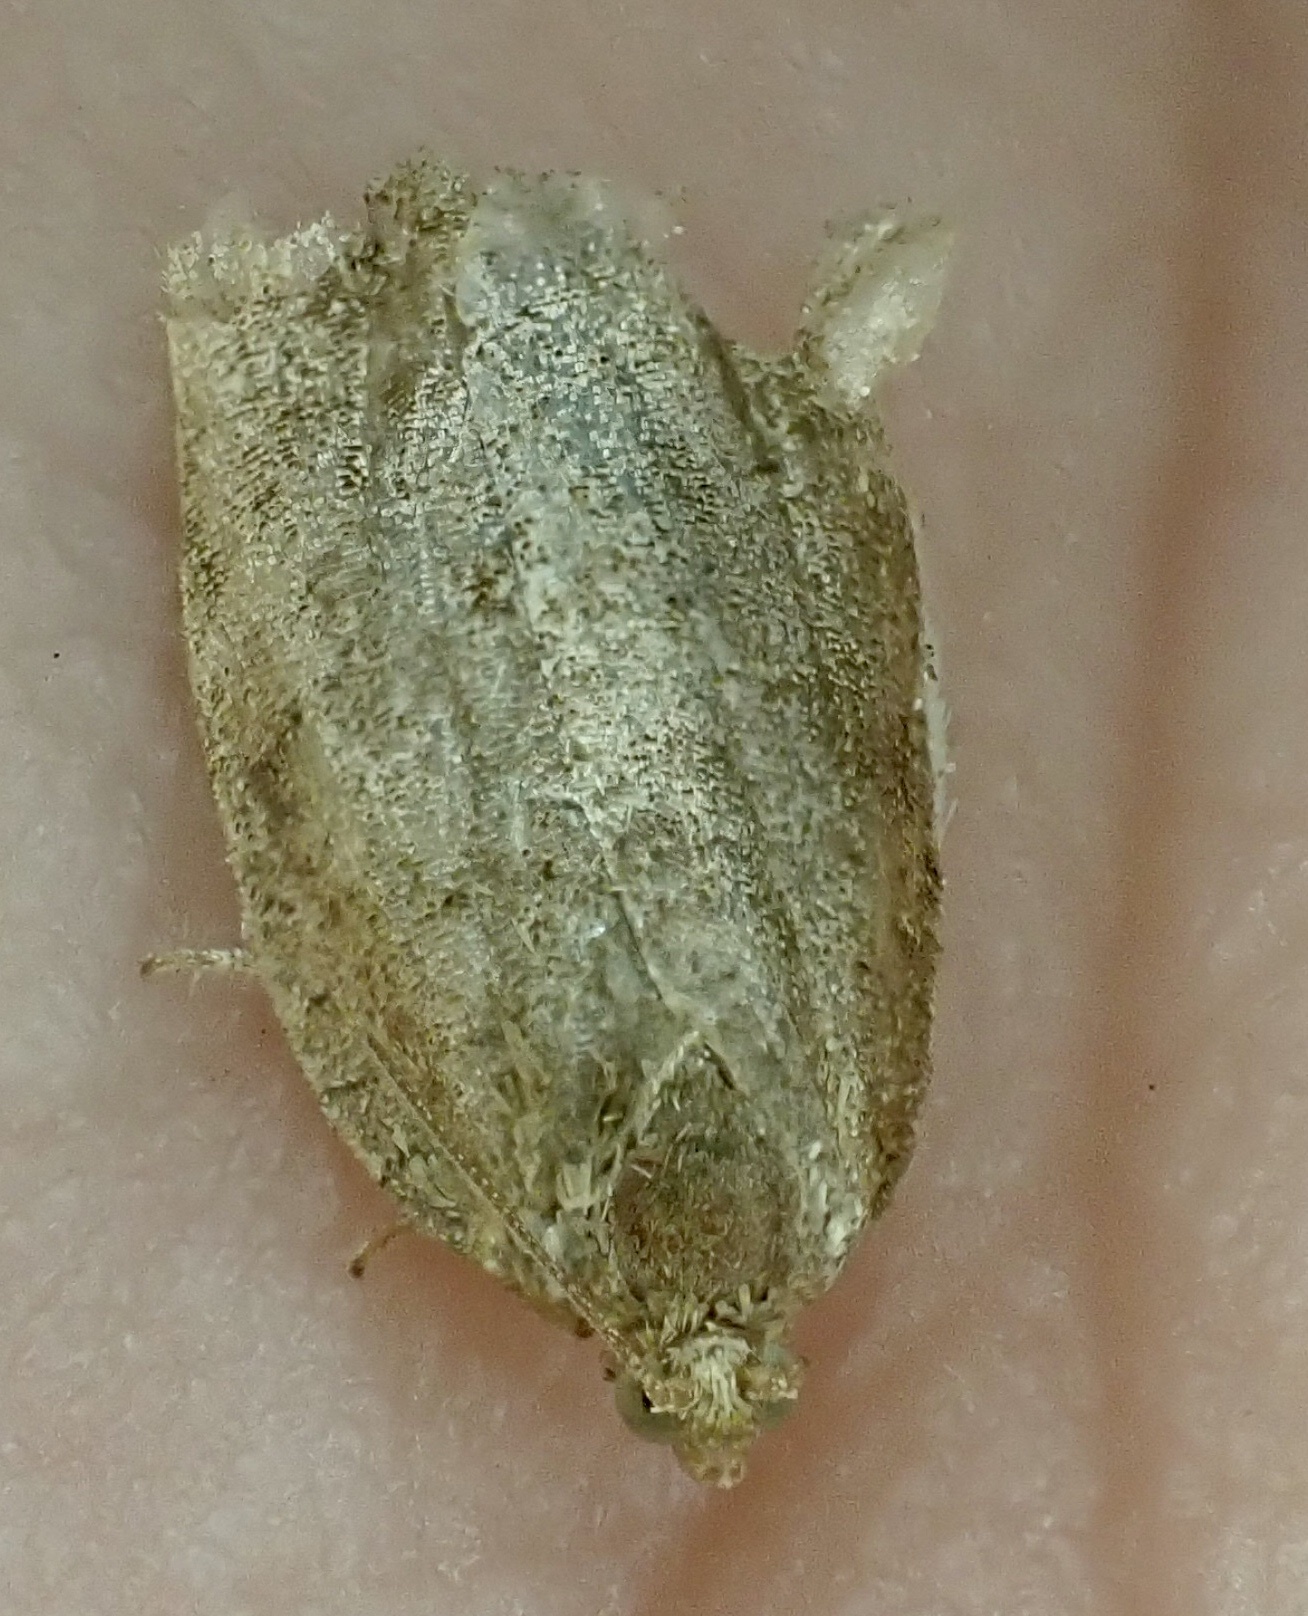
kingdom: Animalia
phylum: Arthropoda
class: Insecta
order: Lepidoptera
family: Tortricidae
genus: Archips
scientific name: Archips rosana
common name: Rose tortrix
